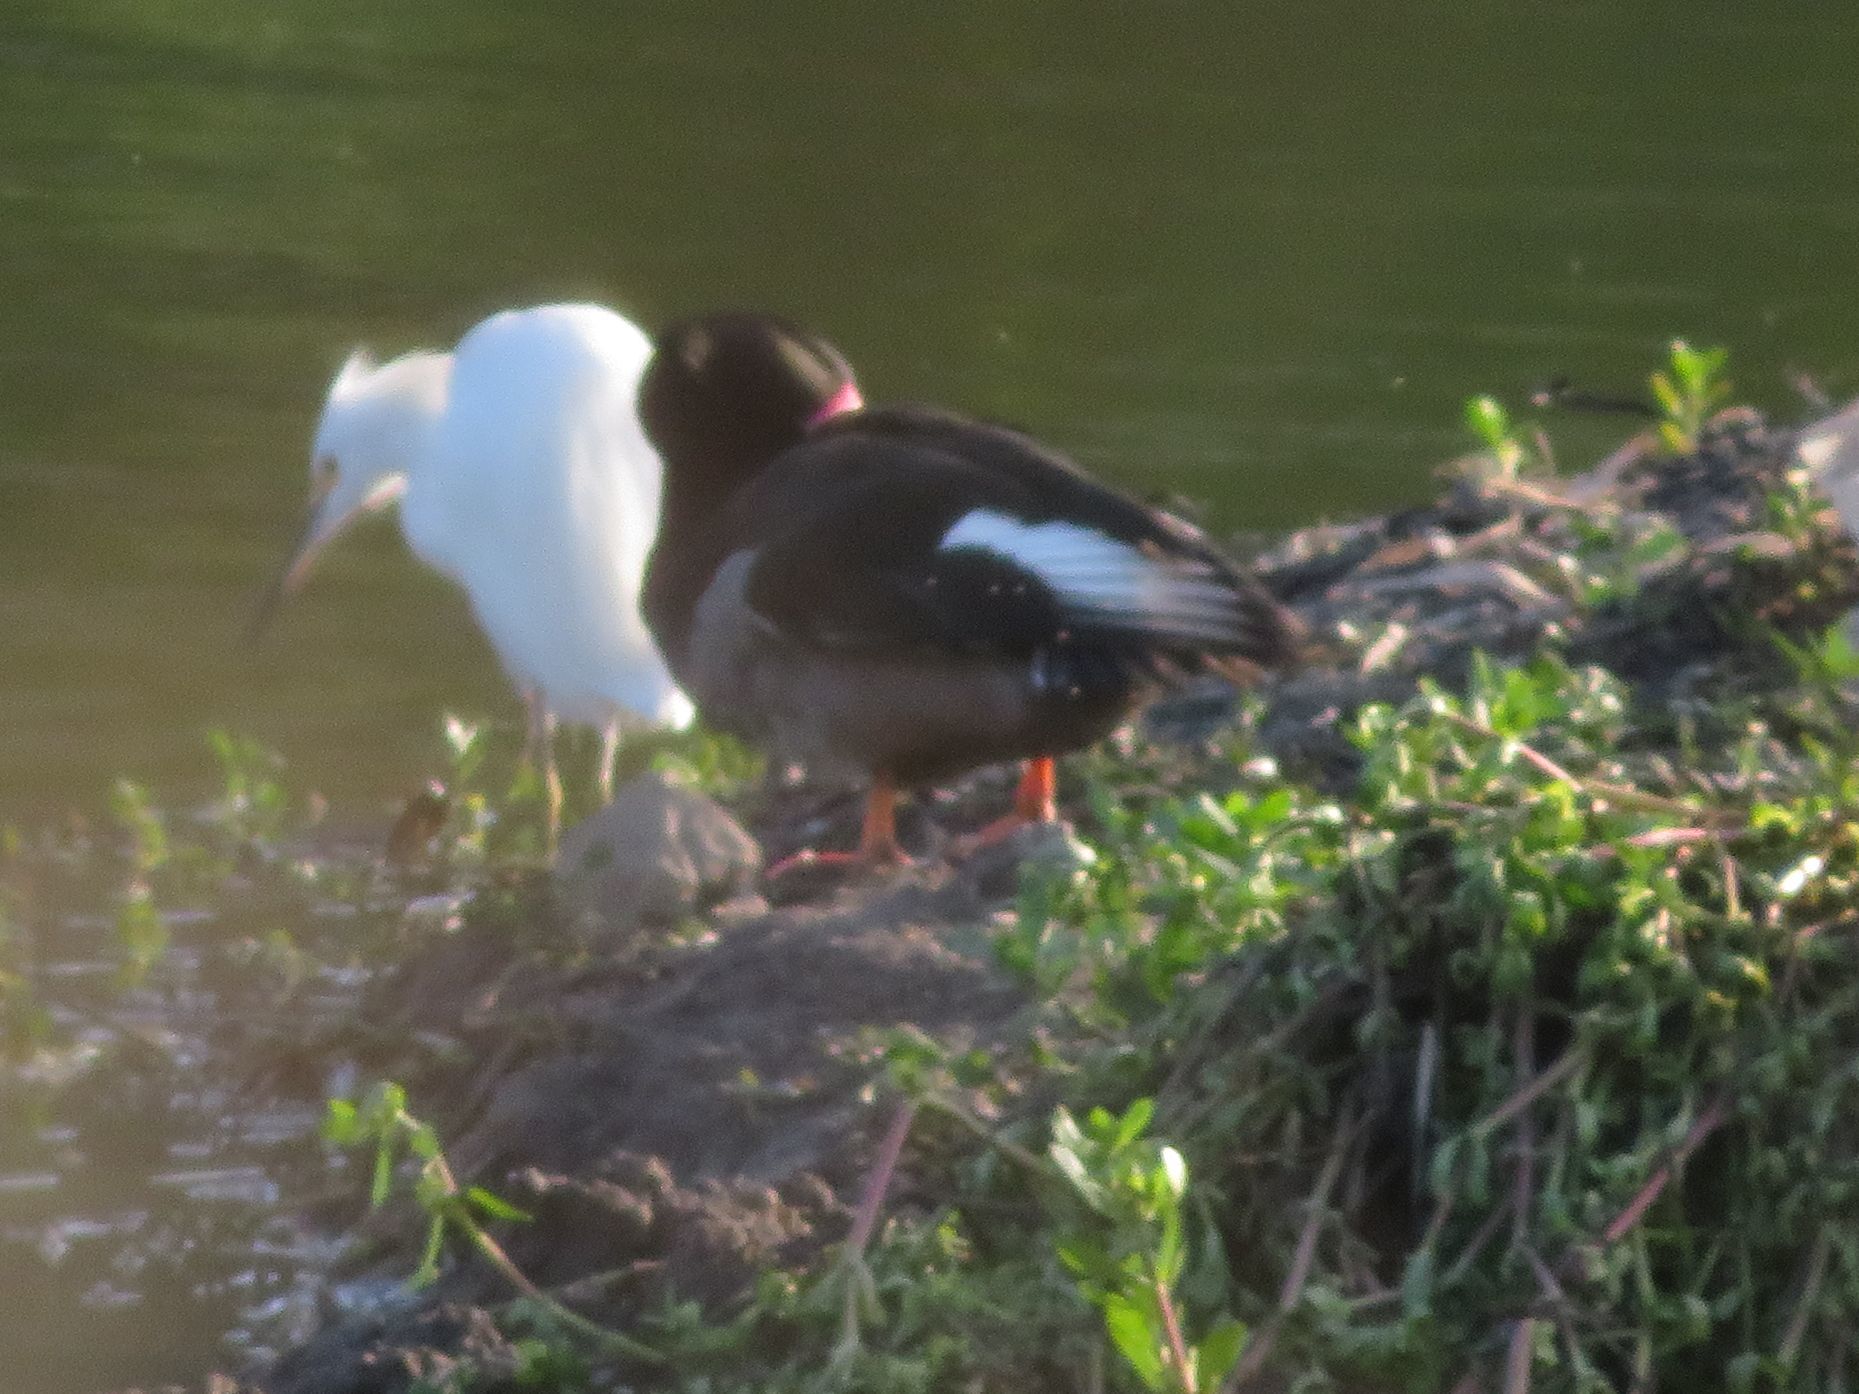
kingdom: Animalia
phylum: Chordata
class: Aves
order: Anseriformes
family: Anatidae
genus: Netta
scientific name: Netta peposaca
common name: Rosy-billed pochard
